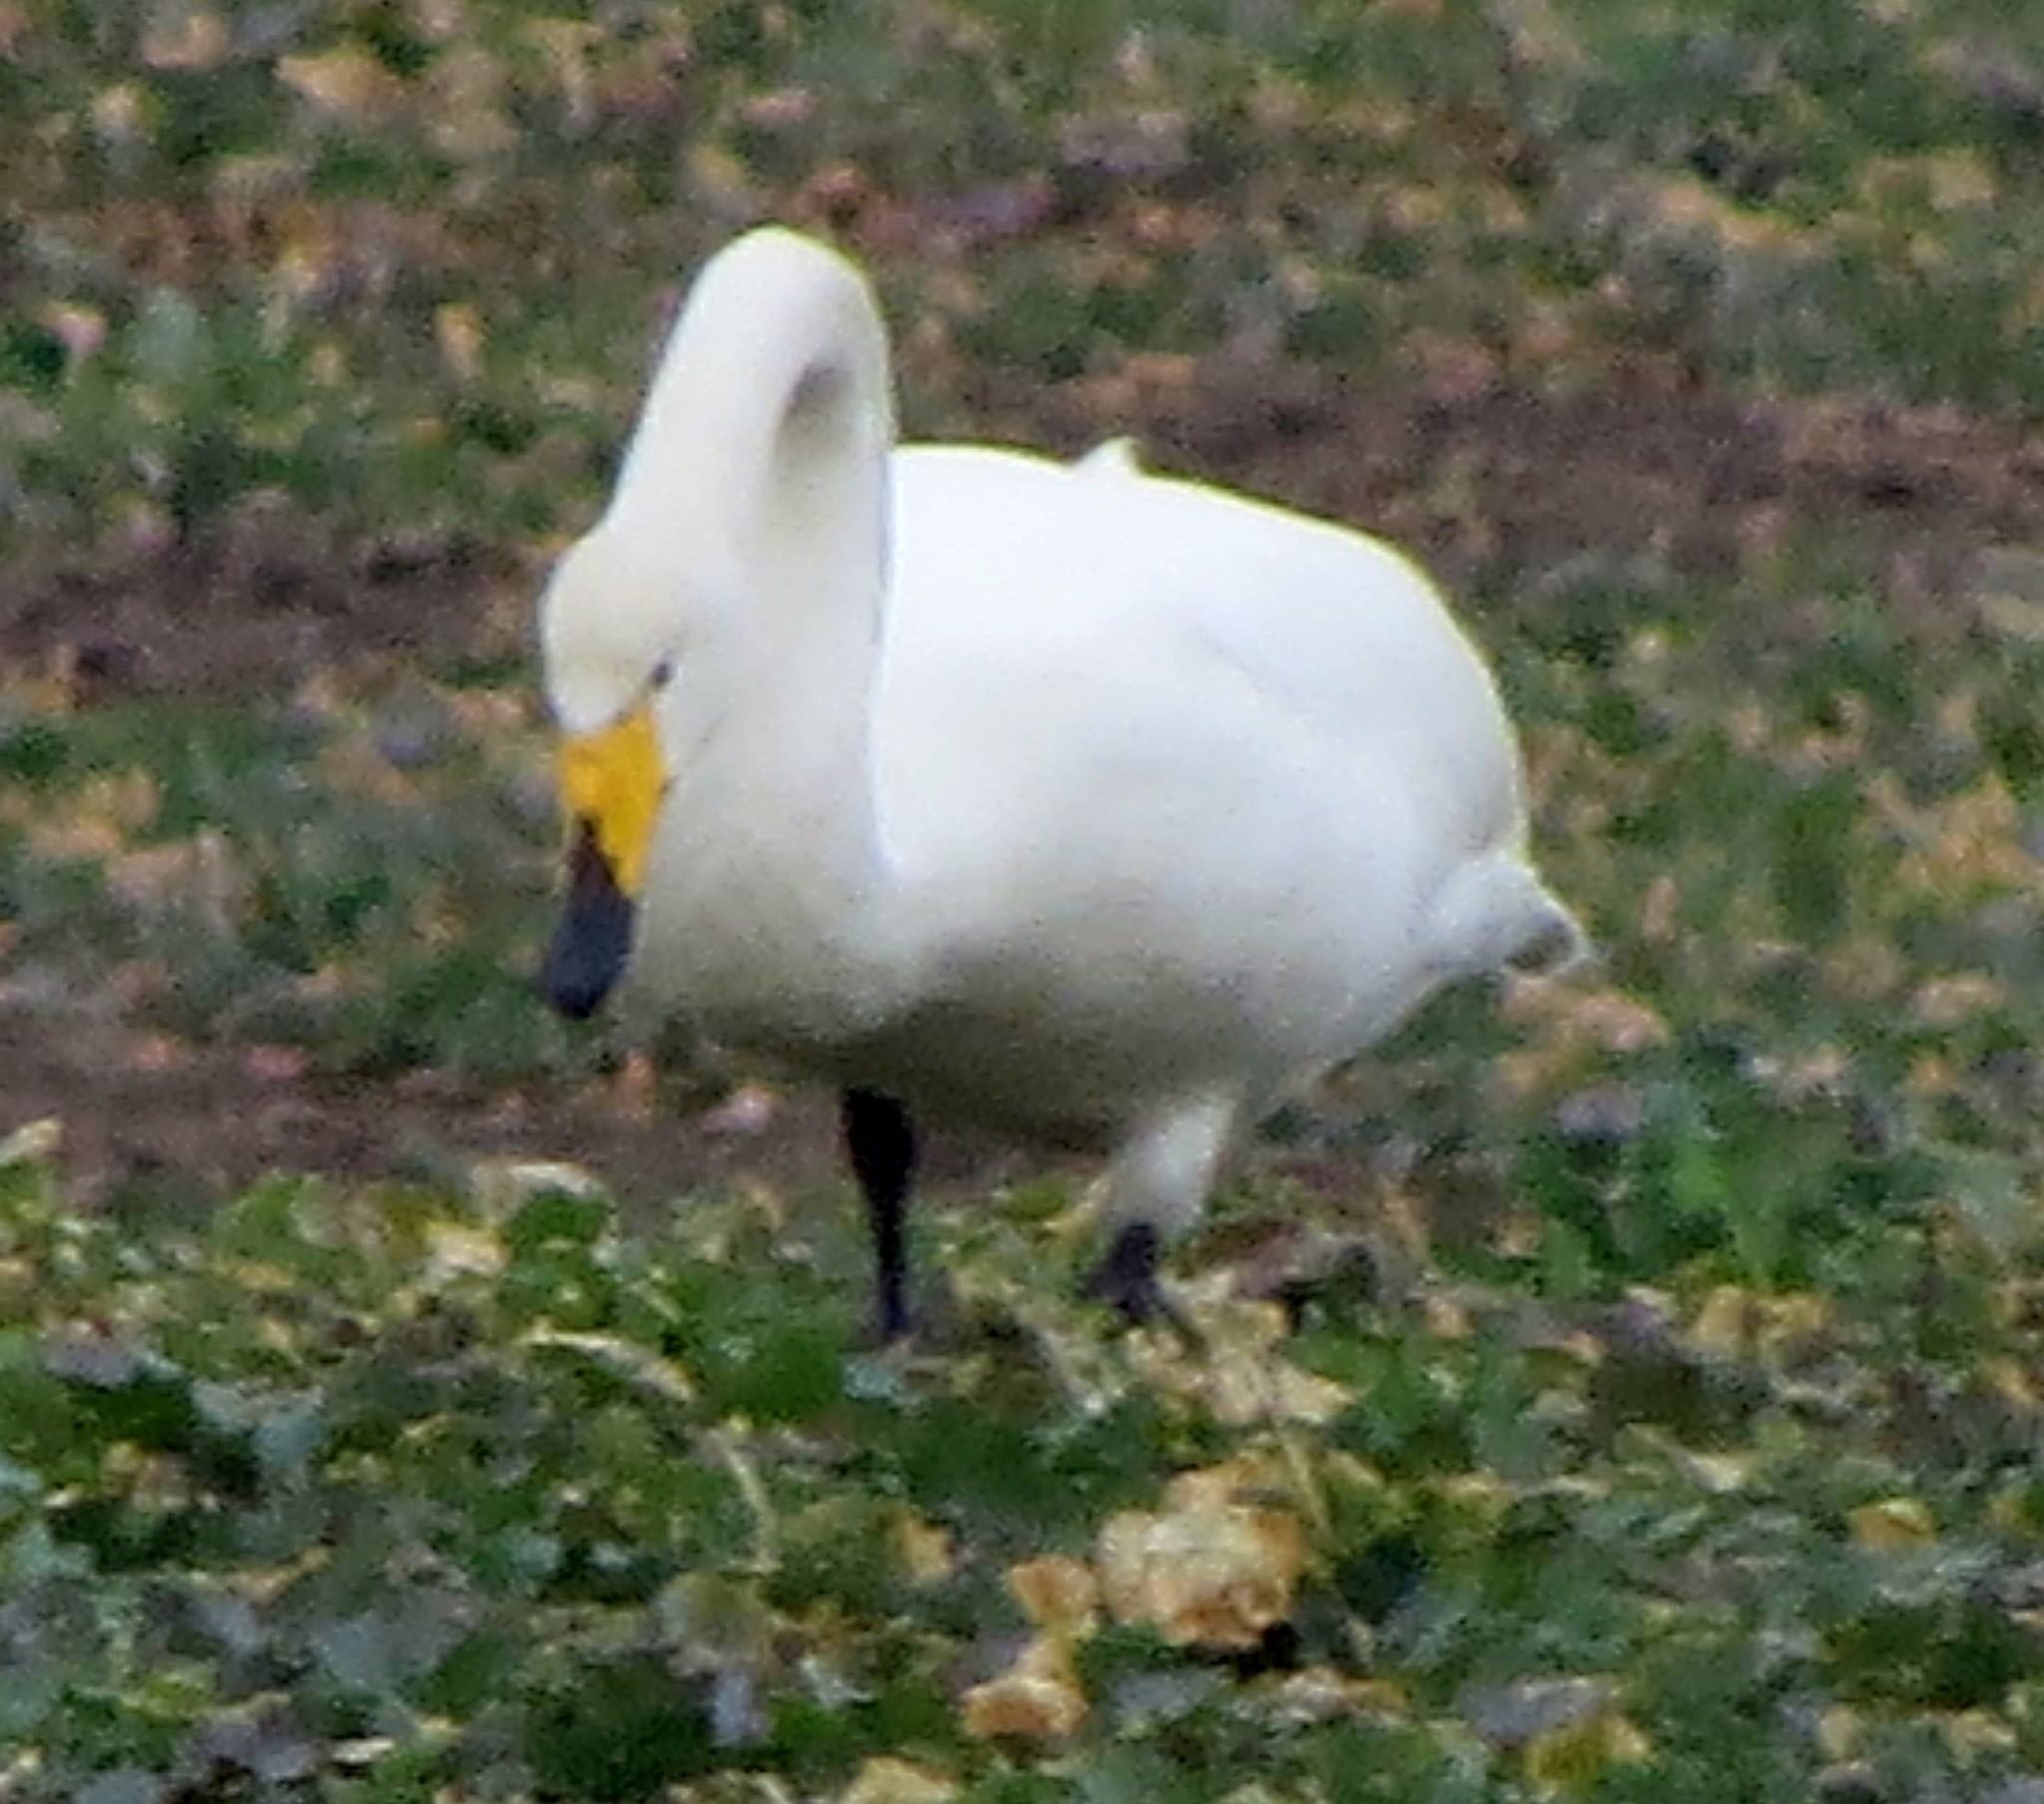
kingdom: Animalia
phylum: Chordata
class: Aves
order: Anseriformes
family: Anatidae
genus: Cygnus
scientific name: Cygnus cygnus
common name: Whooper swan
